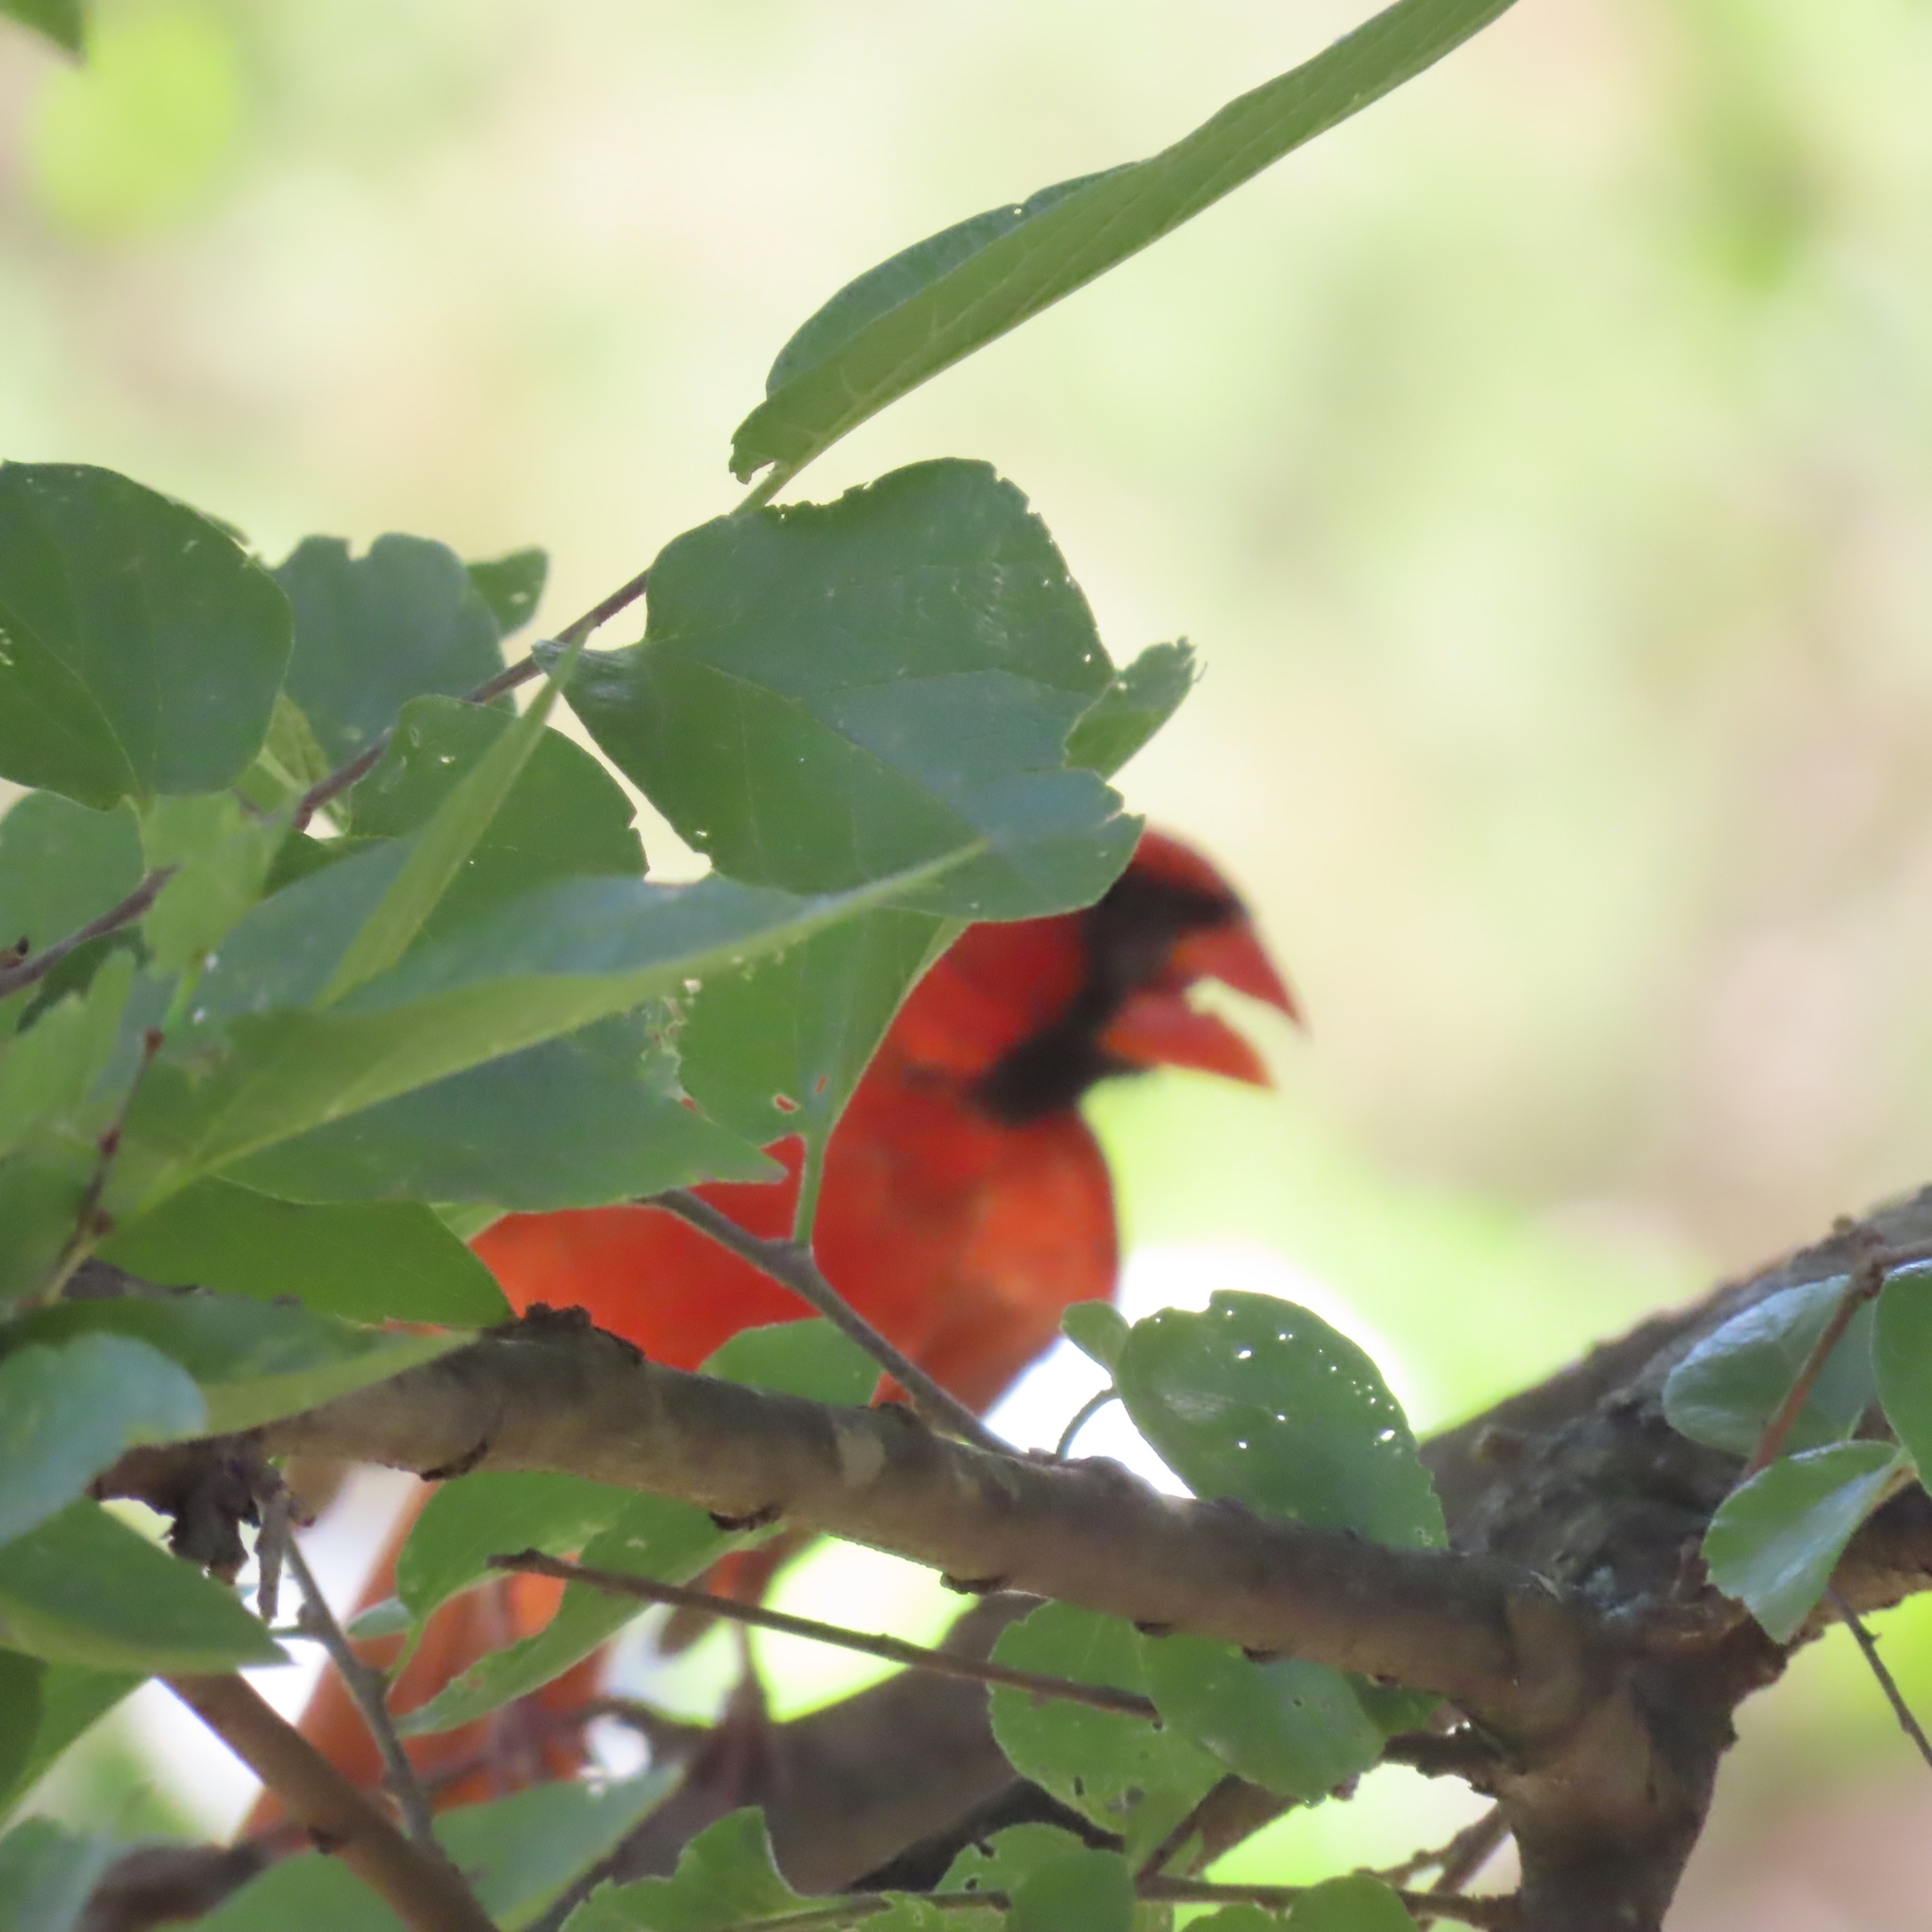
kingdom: Animalia
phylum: Chordata
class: Aves
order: Passeriformes
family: Cardinalidae
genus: Cardinalis
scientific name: Cardinalis cardinalis
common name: Northern cardinal
